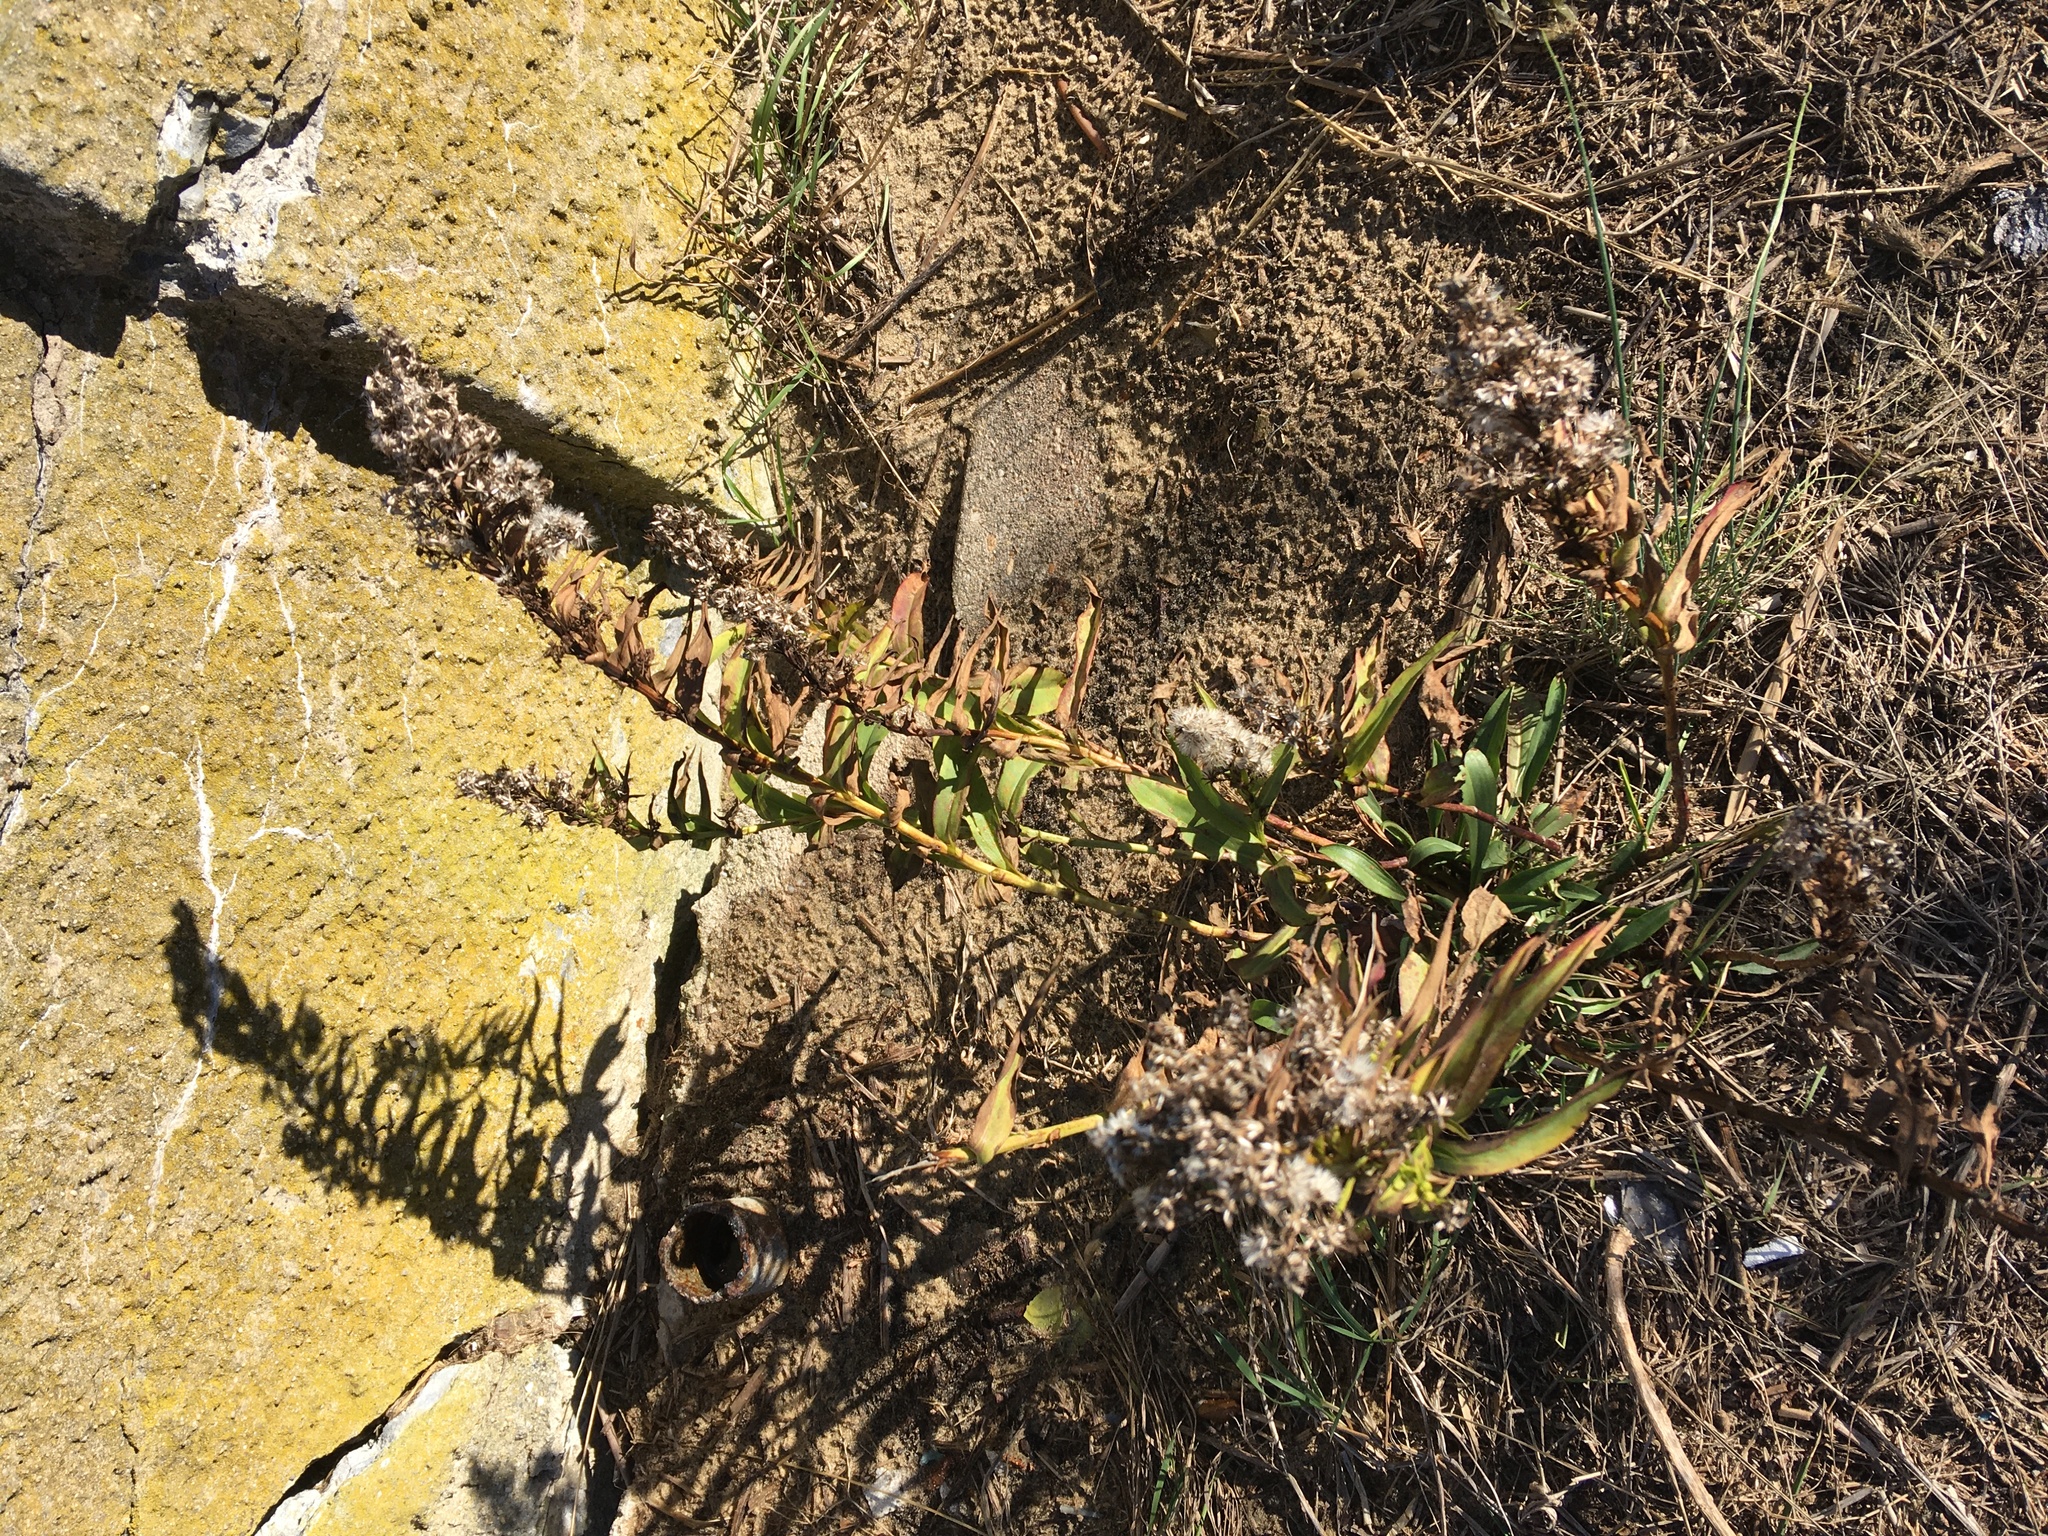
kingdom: Plantae
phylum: Tracheophyta
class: Magnoliopsida
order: Asterales
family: Asteraceae
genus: Solidago
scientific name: Solidago sempervirens
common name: Salt-marsh goldenrod
